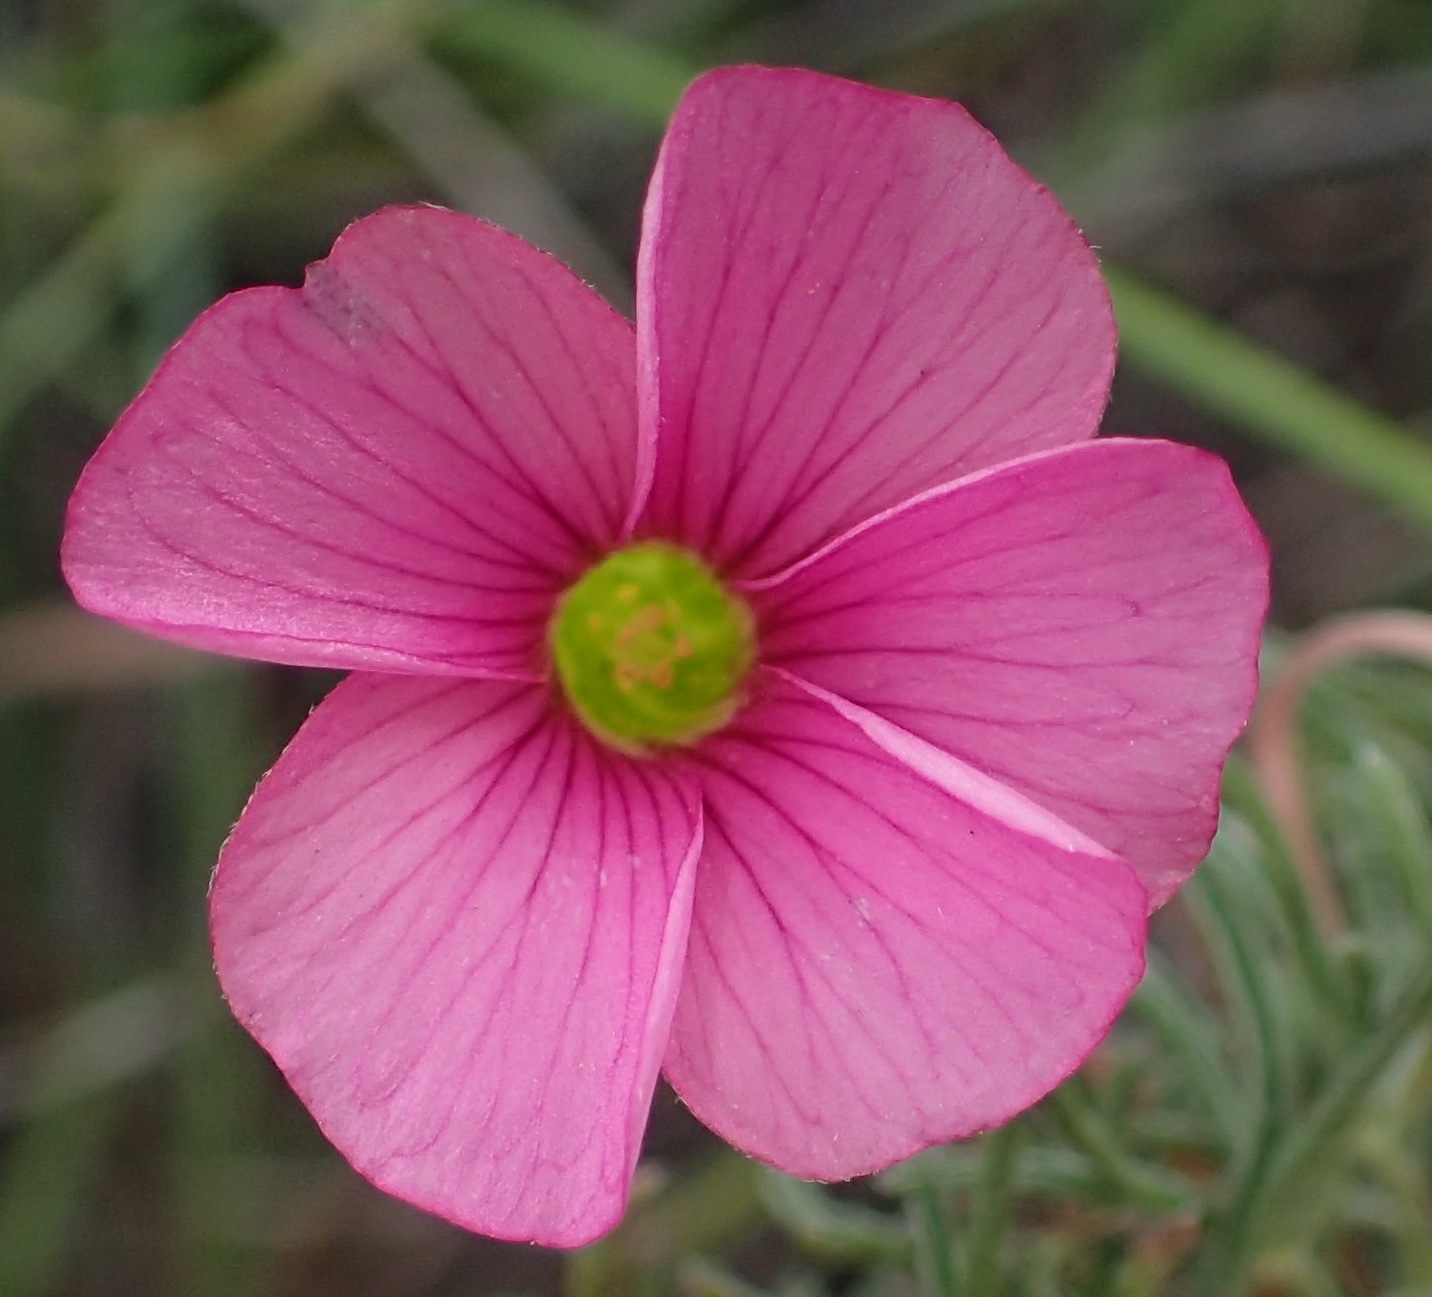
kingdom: Plantae
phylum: Tracheophyta
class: Magnoliopsida
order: Oxalidales
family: Oxalidaceae
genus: Oxalis
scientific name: Oxalis bifurca
